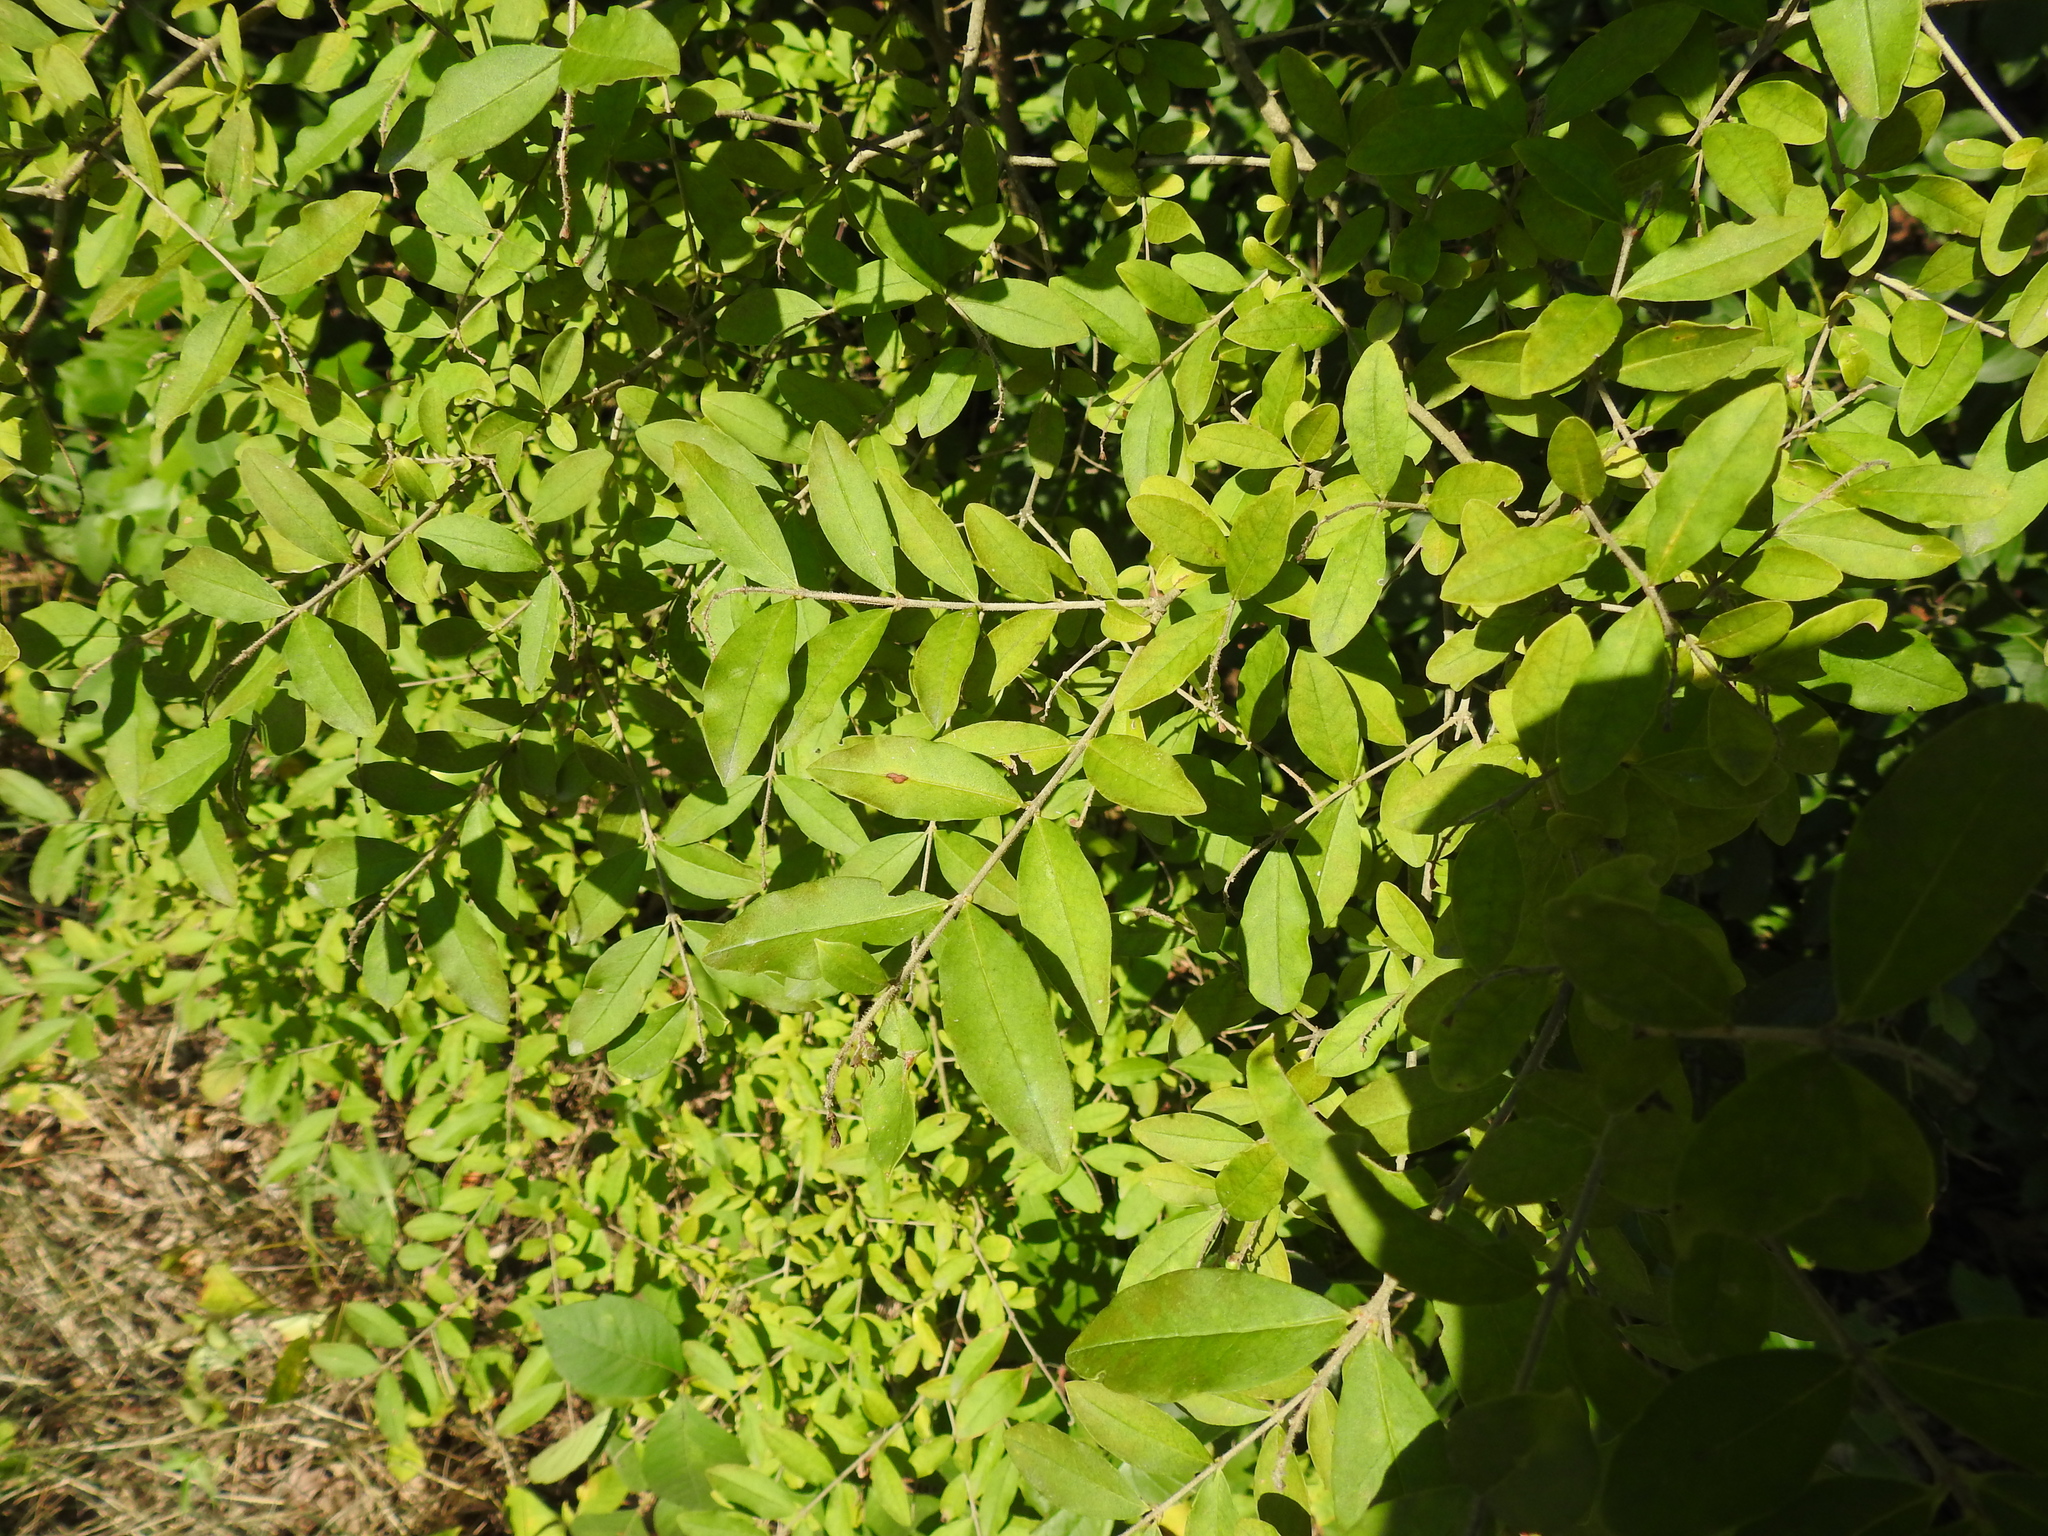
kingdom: Plantae
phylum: Tracheophyta
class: Magnoliopsida
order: Lamiales
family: Oleaceae
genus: Ligustrum
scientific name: Ligustrum obtusifolium
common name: Border privet
